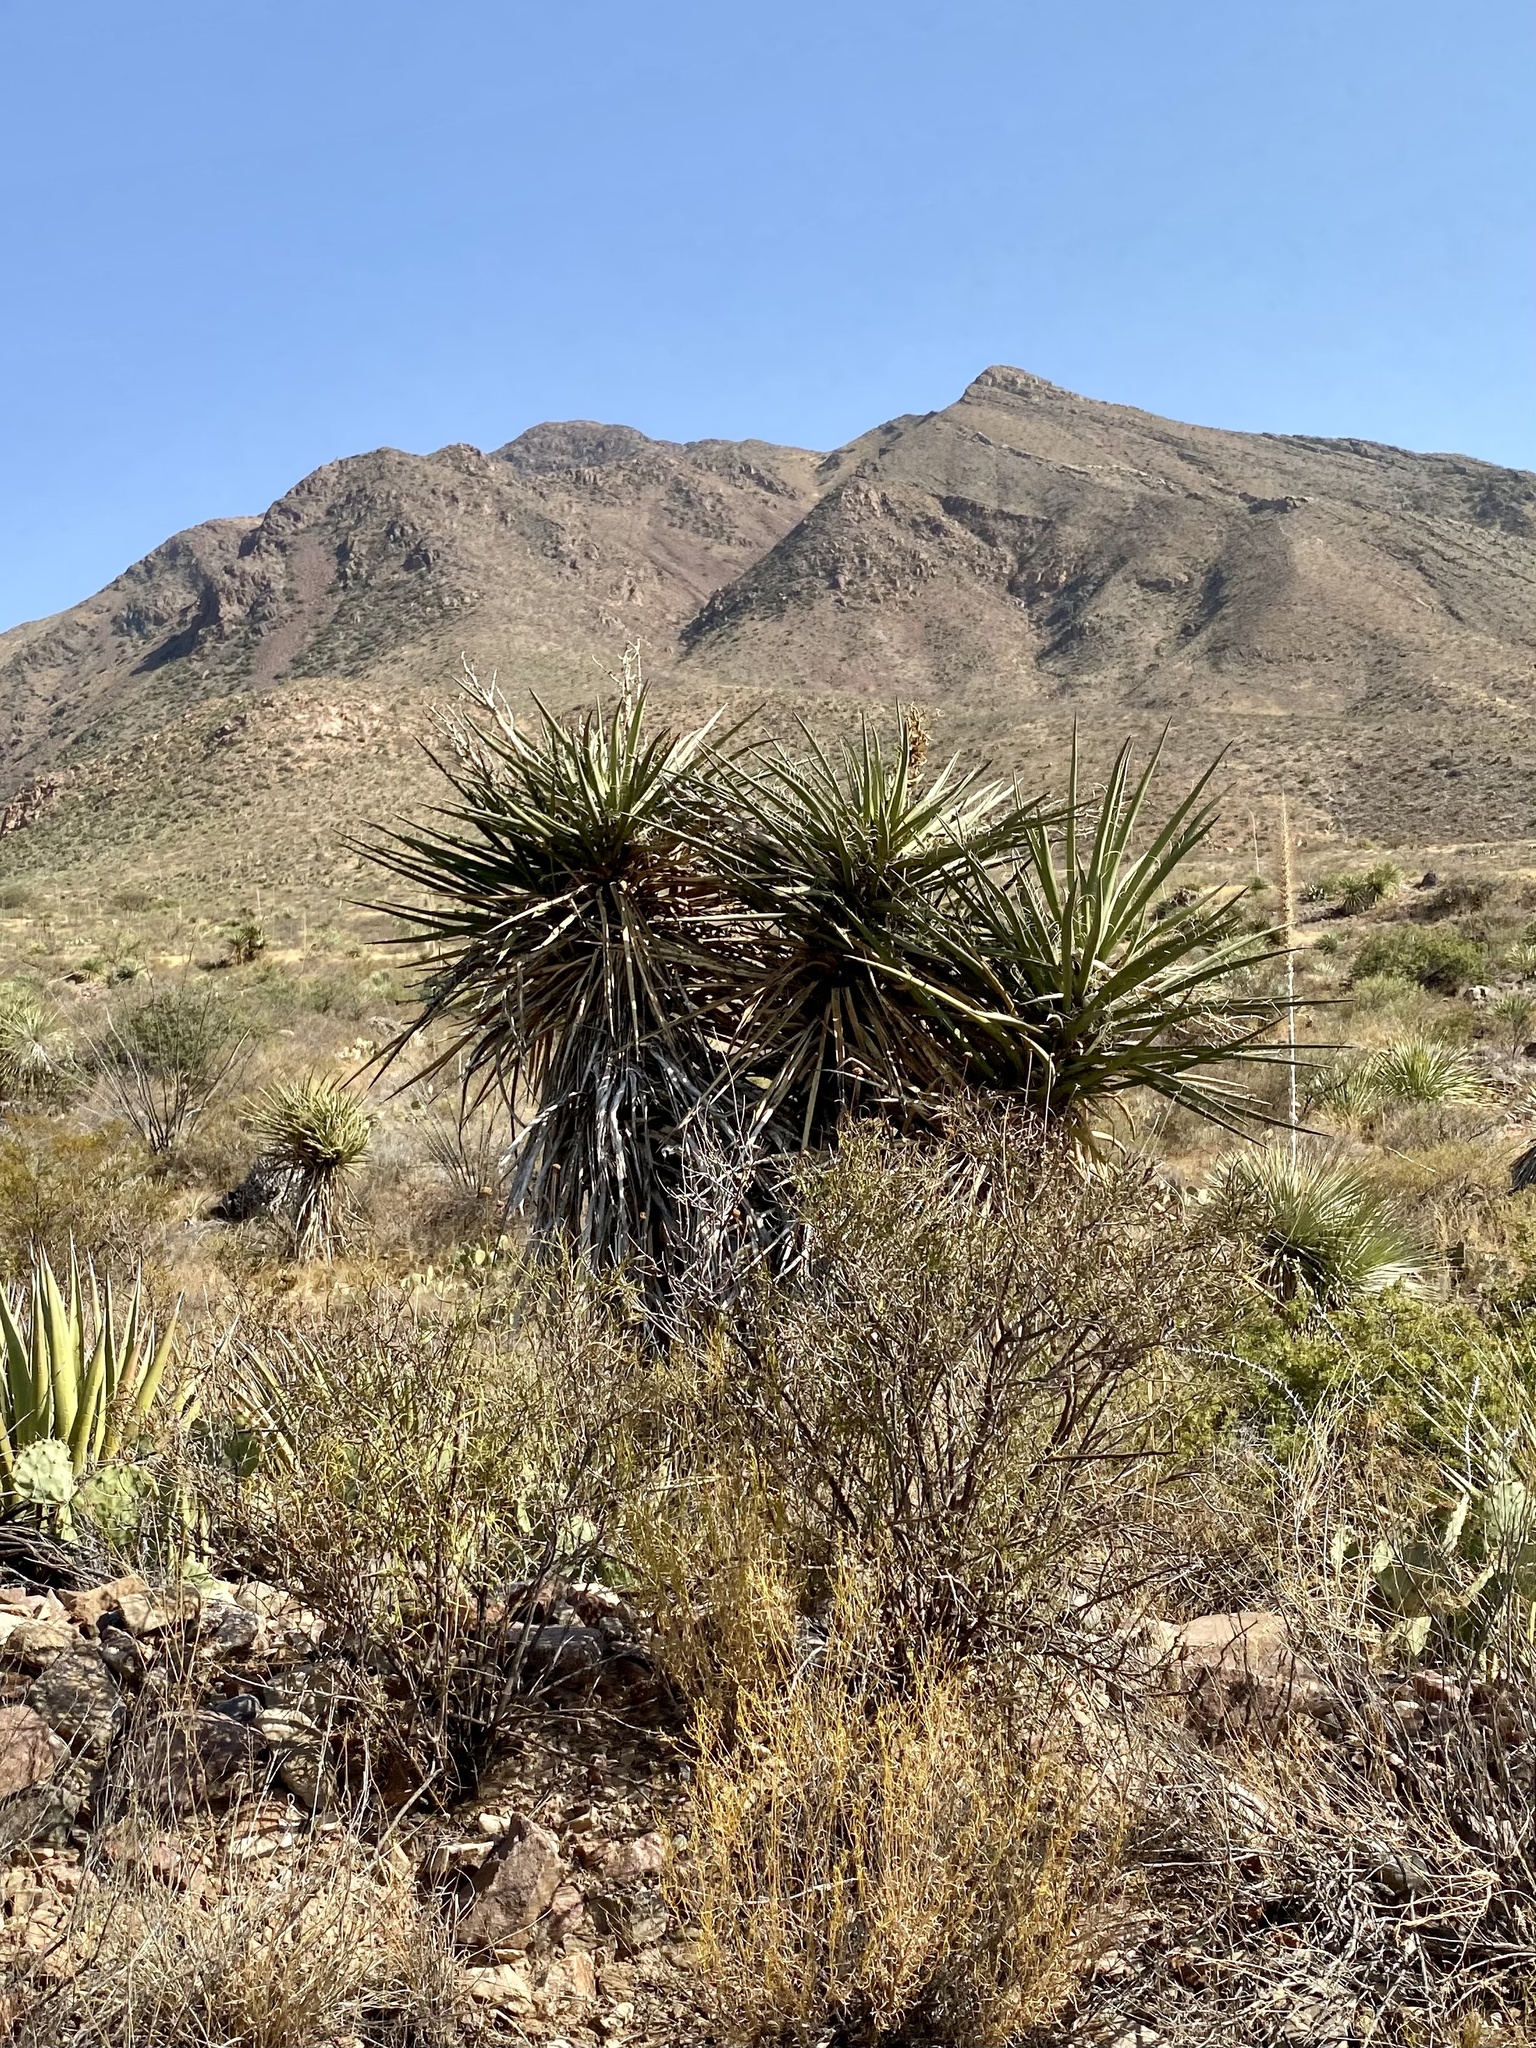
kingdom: Plantae
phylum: Tracheophyta
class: Liliopsida
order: Asparagales
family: Asparagaceae
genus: Yucca
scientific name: Yucca treculiana
